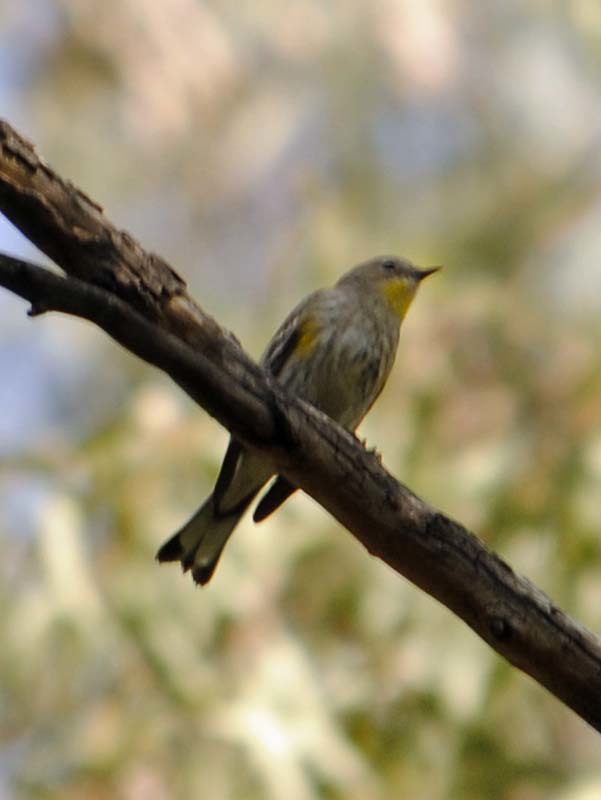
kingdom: Animalia
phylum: Chordata
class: Aves
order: Passeriformes
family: Parulidae
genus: Setophaga
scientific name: Setophaga coronata
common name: Myrtle warbler
